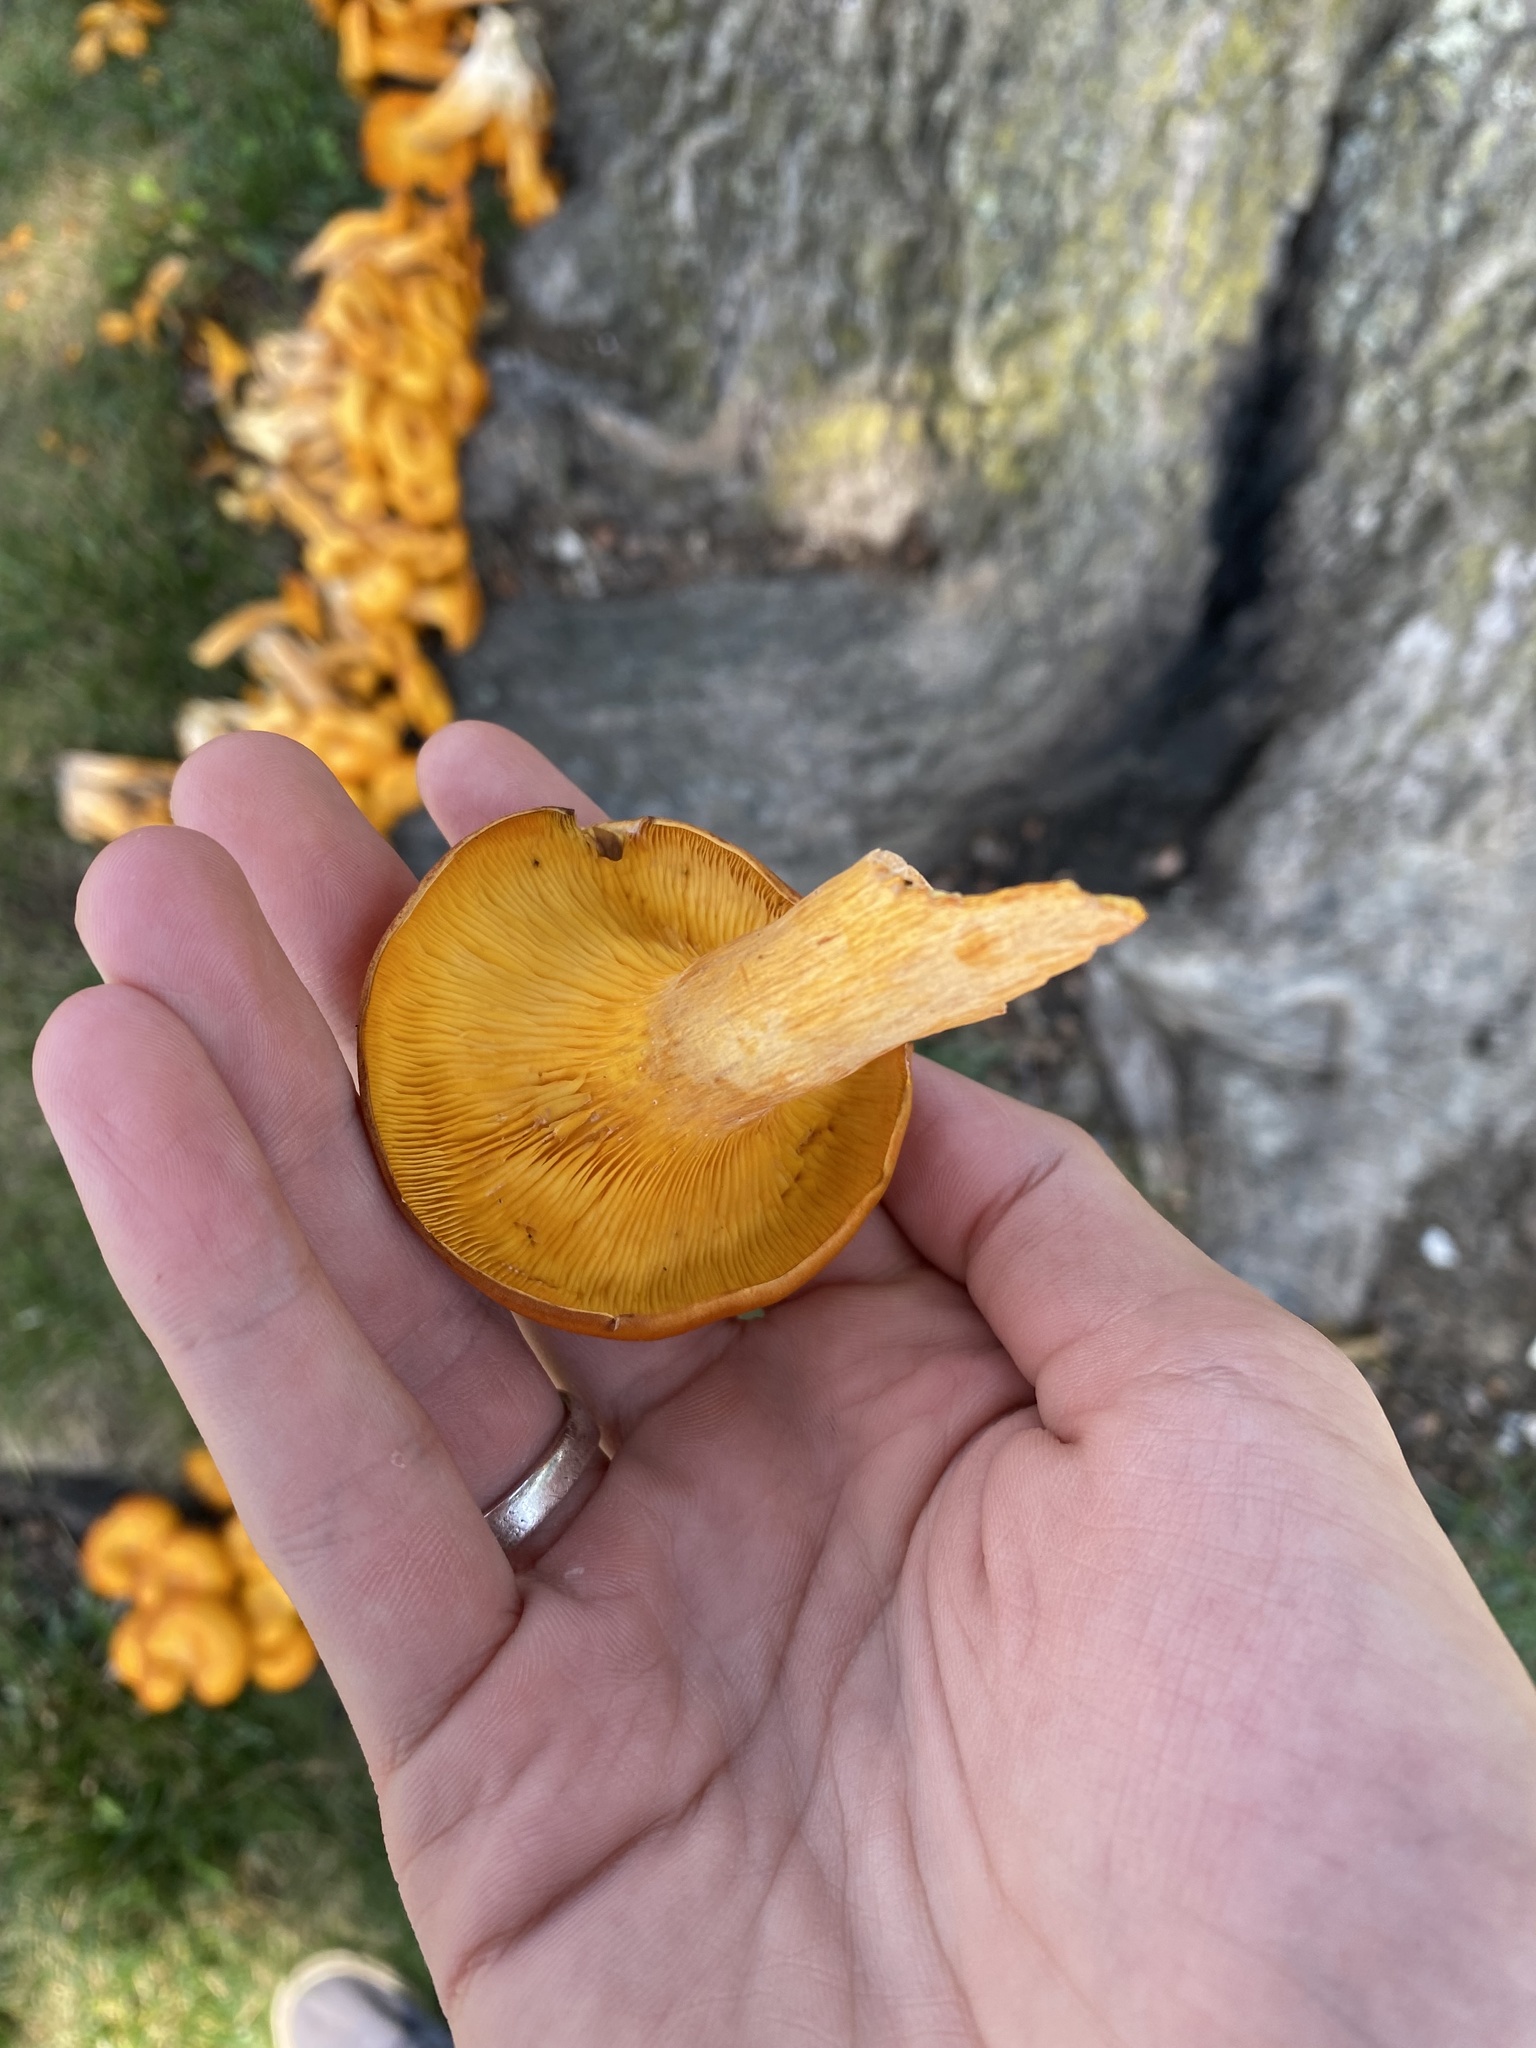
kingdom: Fungi
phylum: Basidiomycota
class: Agaricomycetes
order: Agaricales
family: Omphalotaceae
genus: Omphalotus
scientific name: Omphalotus illudens
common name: Jack o lantern
